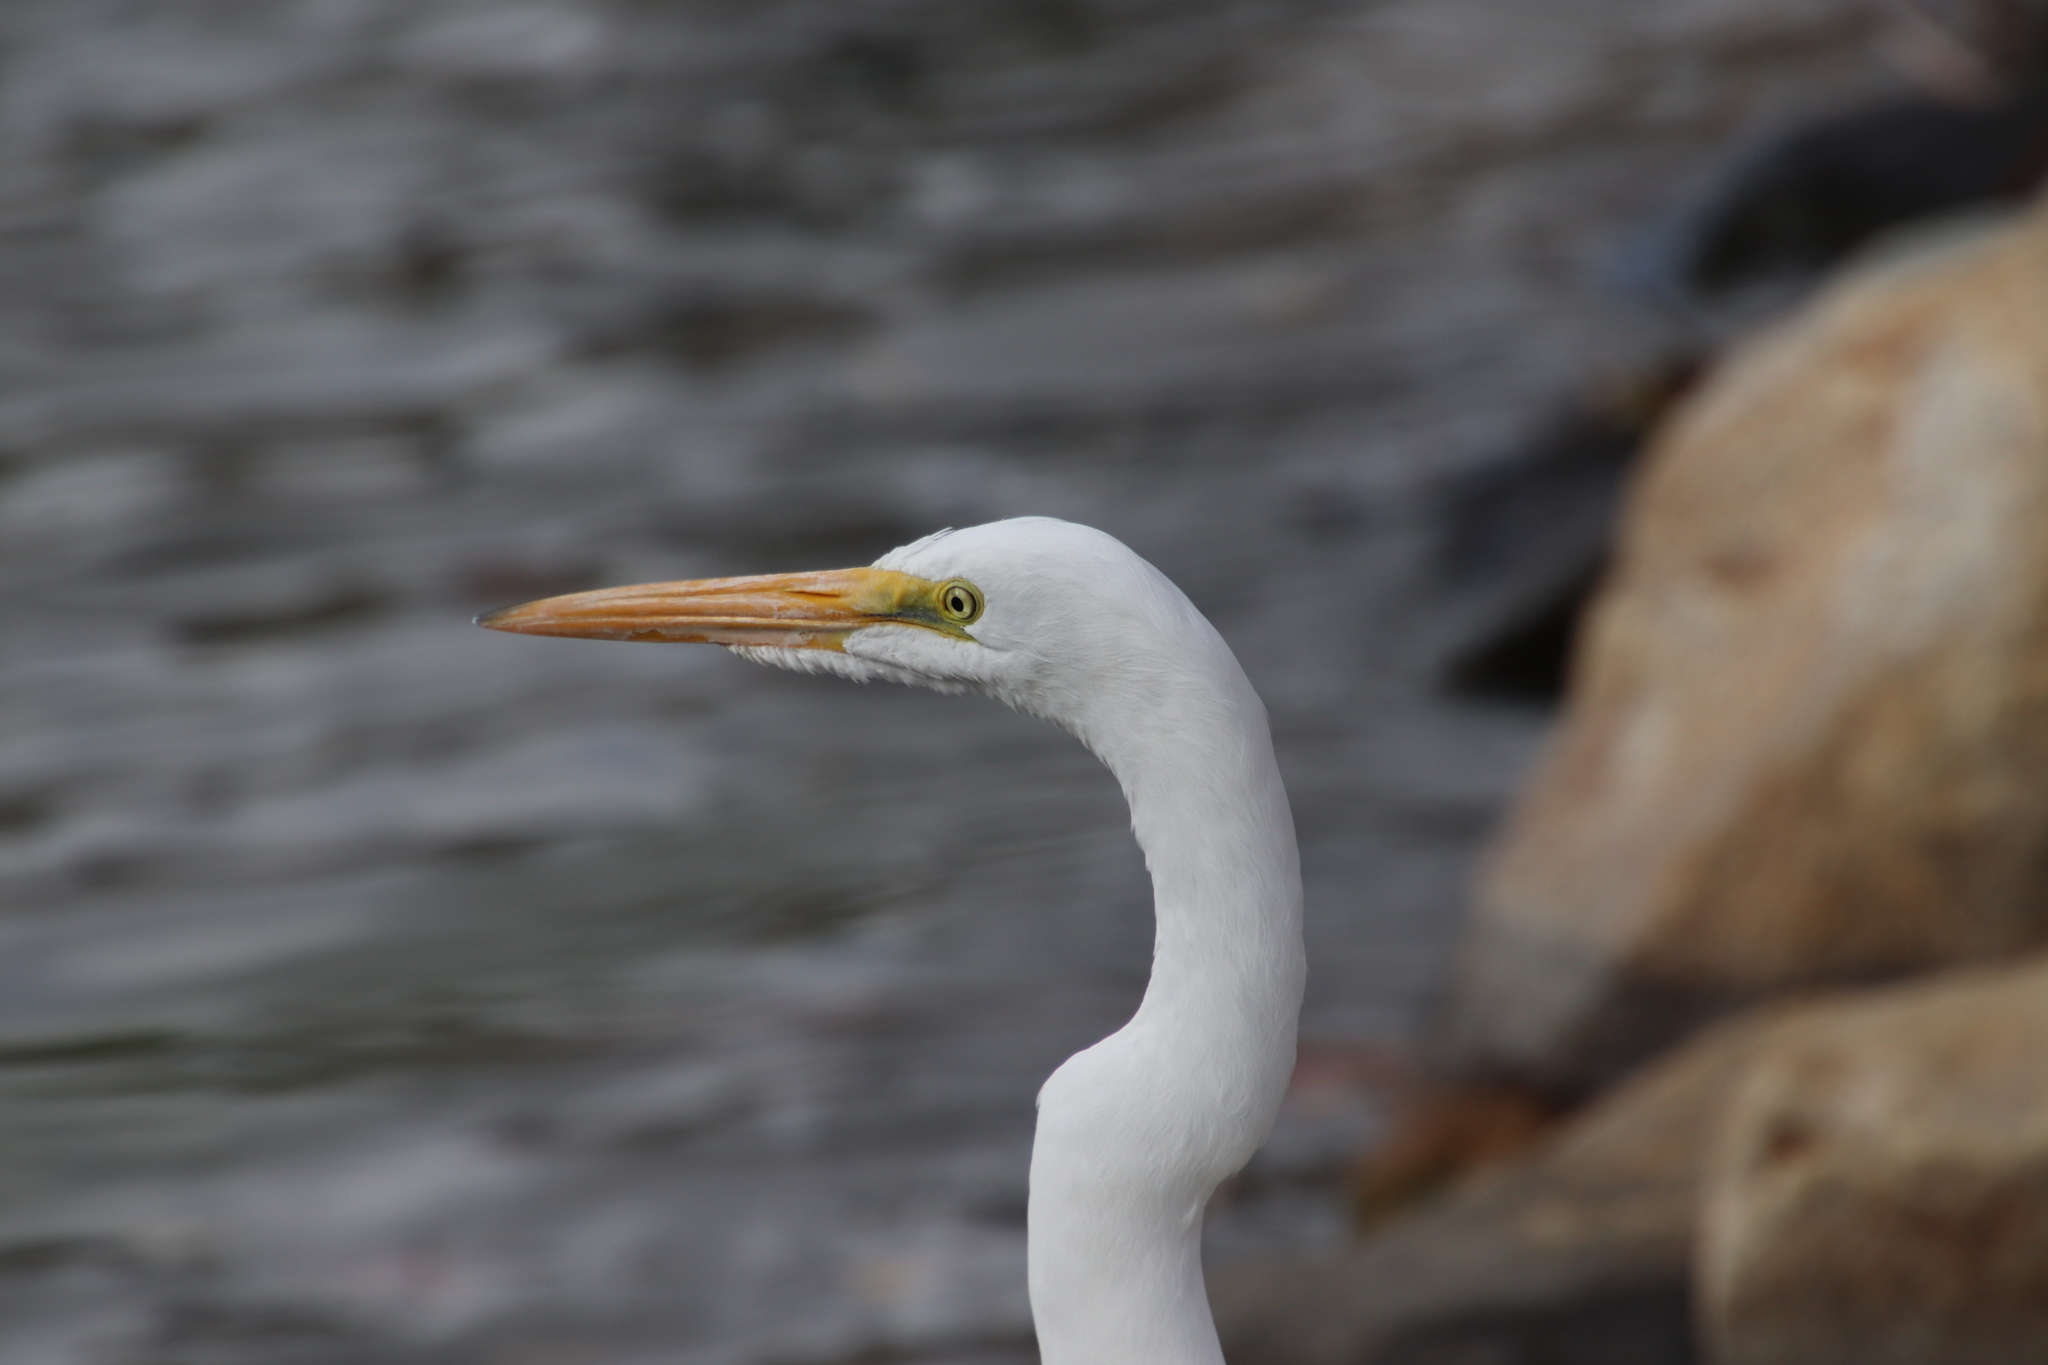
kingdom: Animalia
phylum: Chordata
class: Aves
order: Pelecaniformes
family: Ardeidae
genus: Ardea
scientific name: Ardea alba
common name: Great egret
